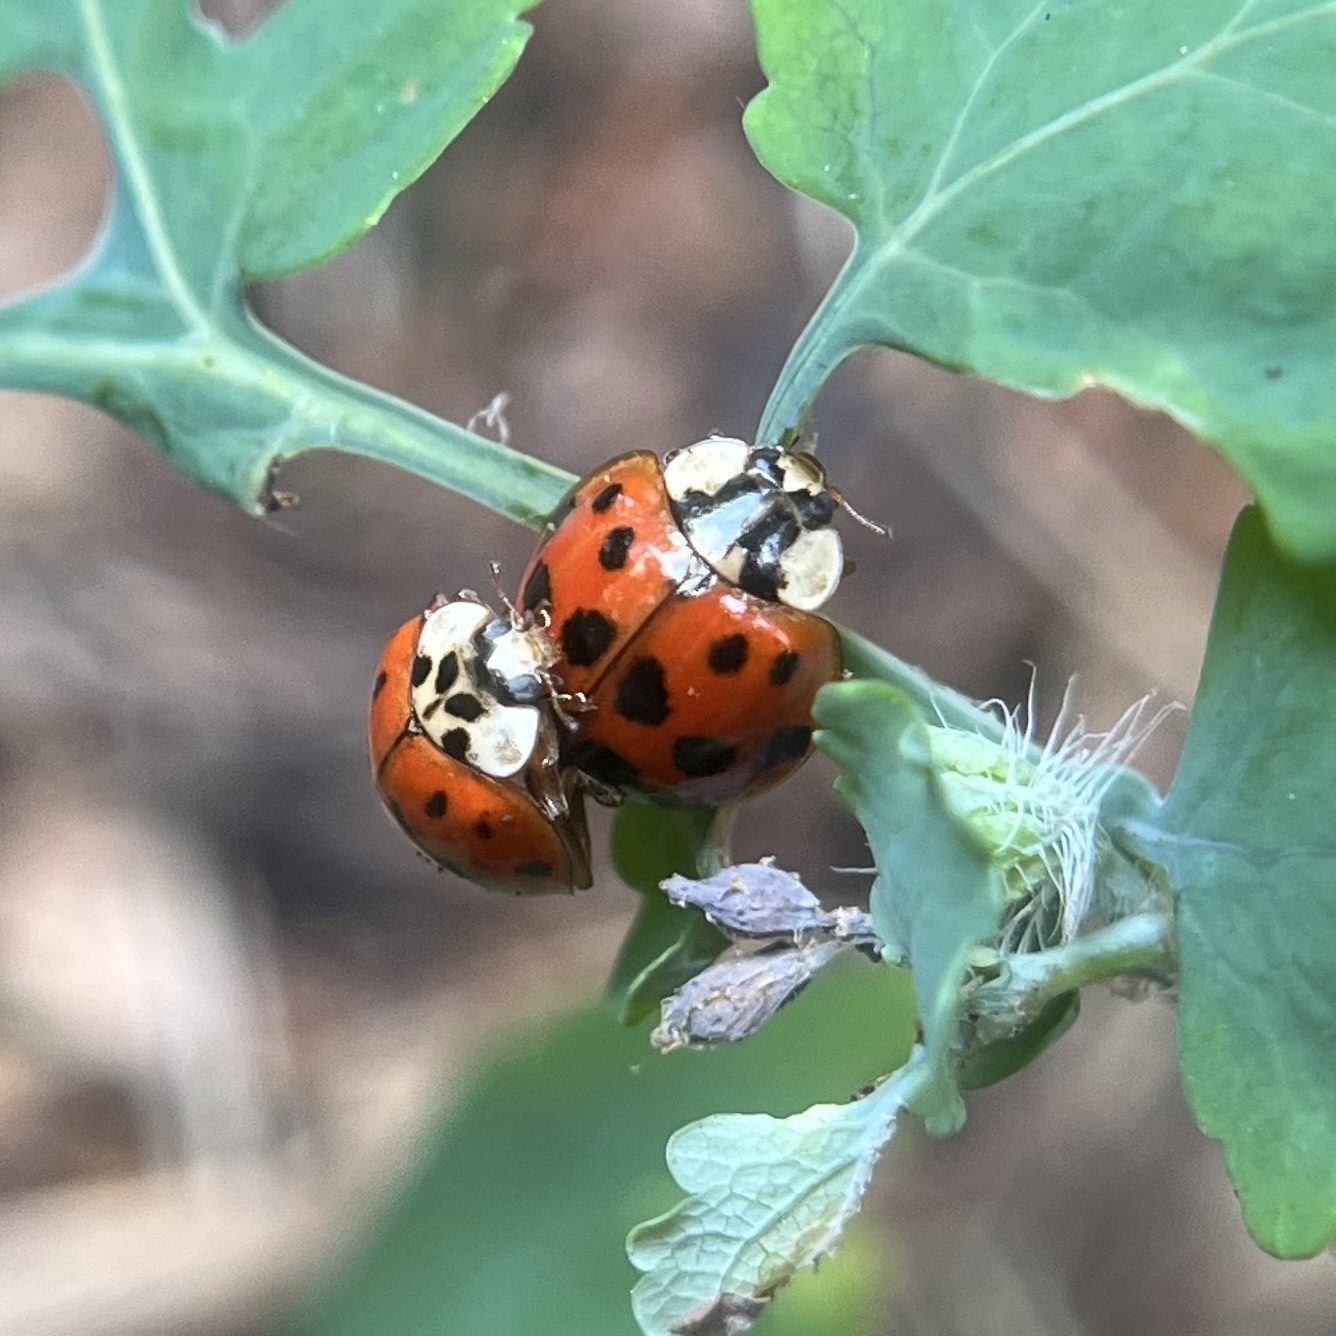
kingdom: Animalia
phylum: Arthropoda
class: Insecta
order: Coleoptera
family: Coccinellidae
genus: Harmonia
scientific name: Harmonia axyridis
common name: Harlequin ladybird
